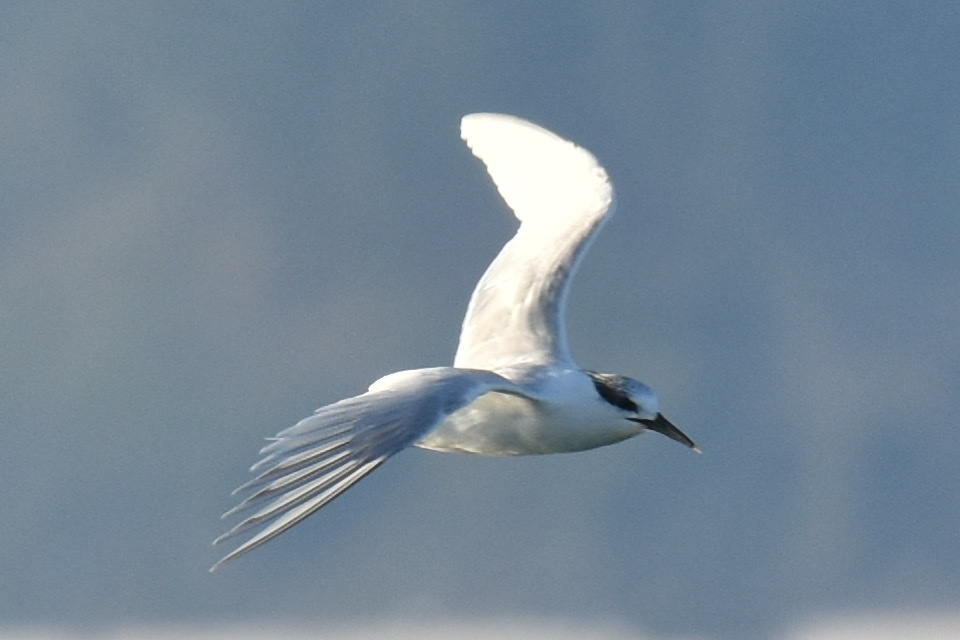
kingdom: Animalia
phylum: Chordata
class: Aves
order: Charadriiformes
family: Laridae
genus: Thalasseus
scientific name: Thalasseus sandvicensis
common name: Sandwich tern
